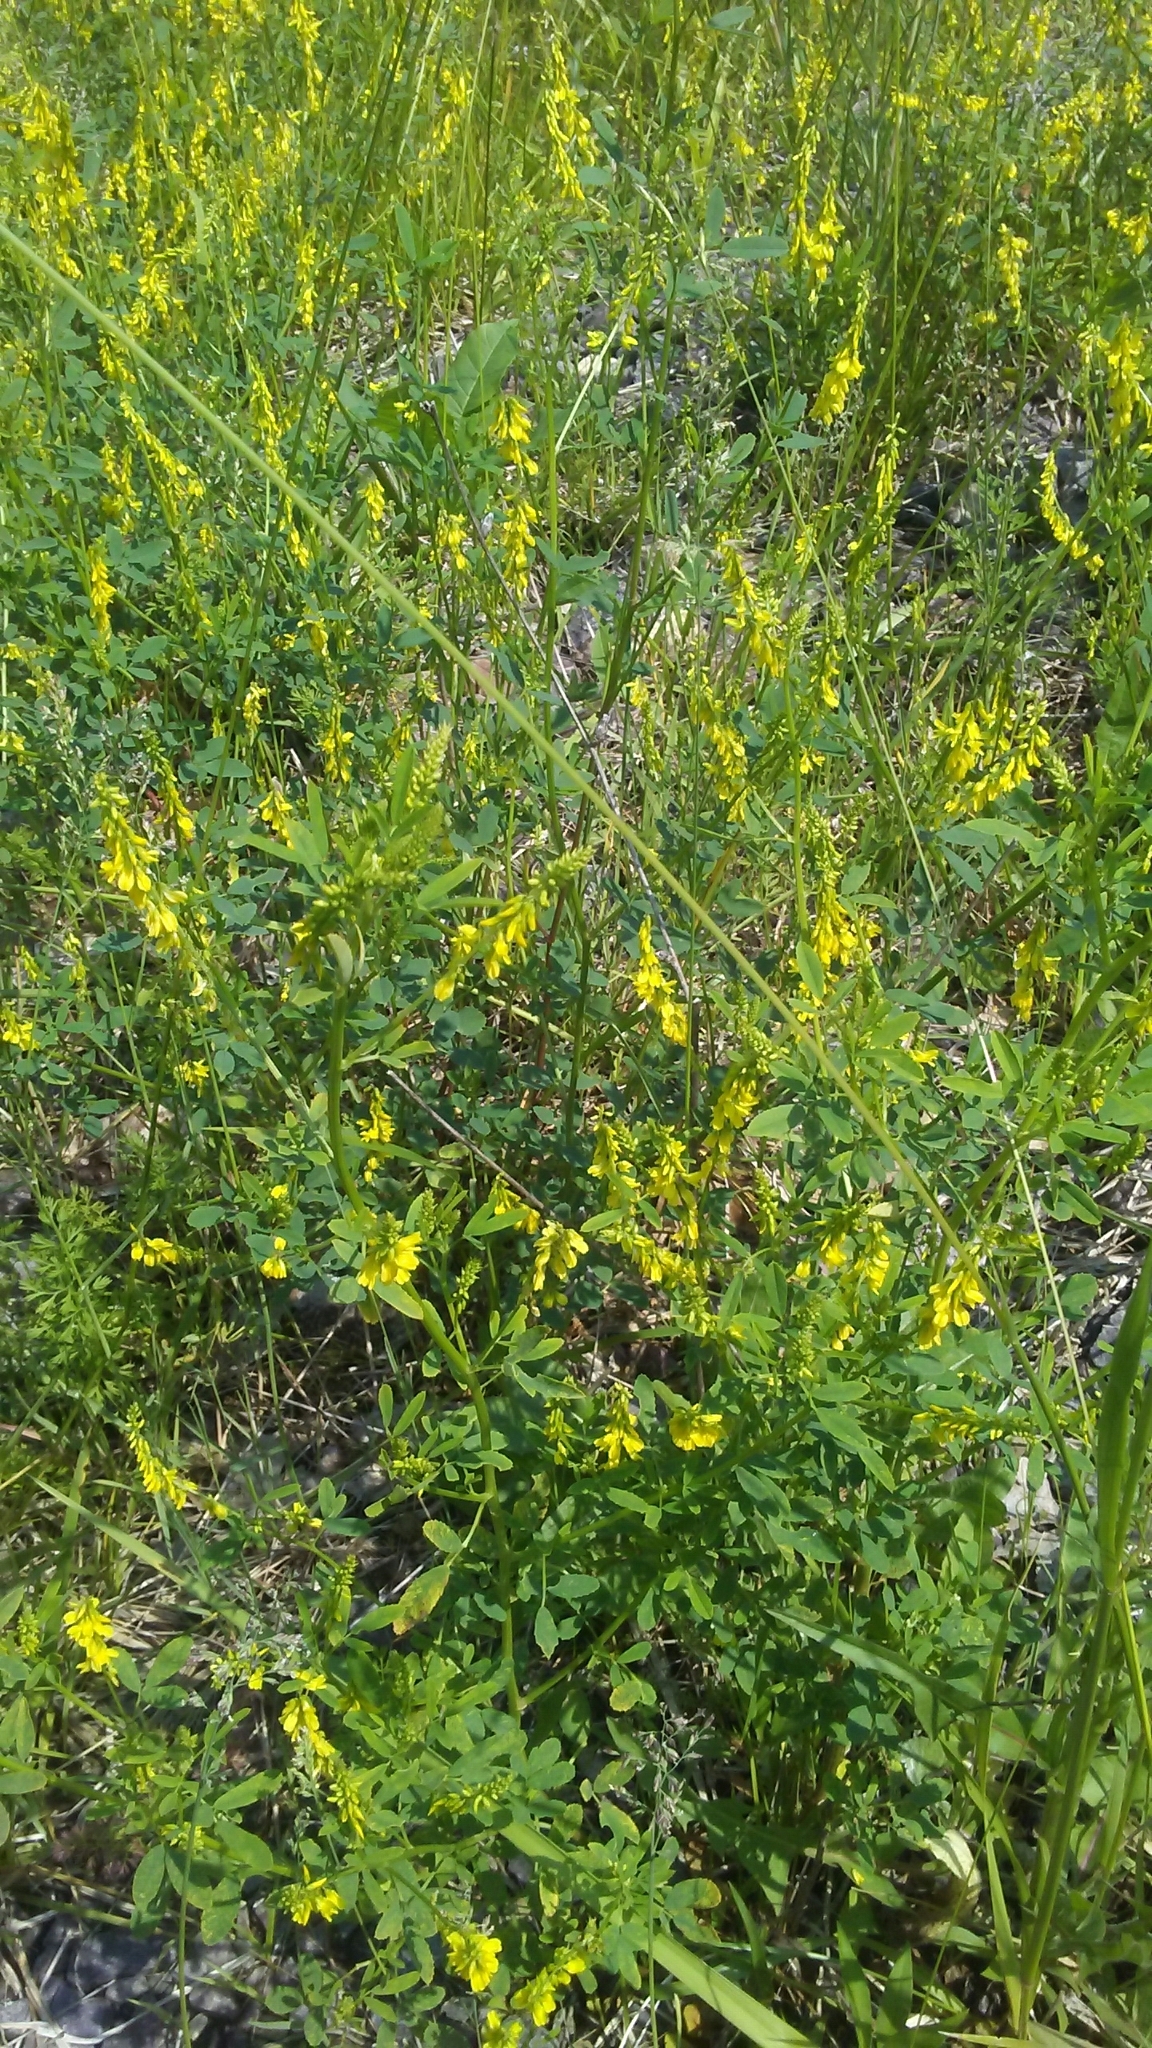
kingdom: Plantae
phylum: Tracheophyta
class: Magnoliopsida
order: Fabales
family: Fabaceae
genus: Melilotus
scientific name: Melilotus officinalis
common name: Sweetclover
